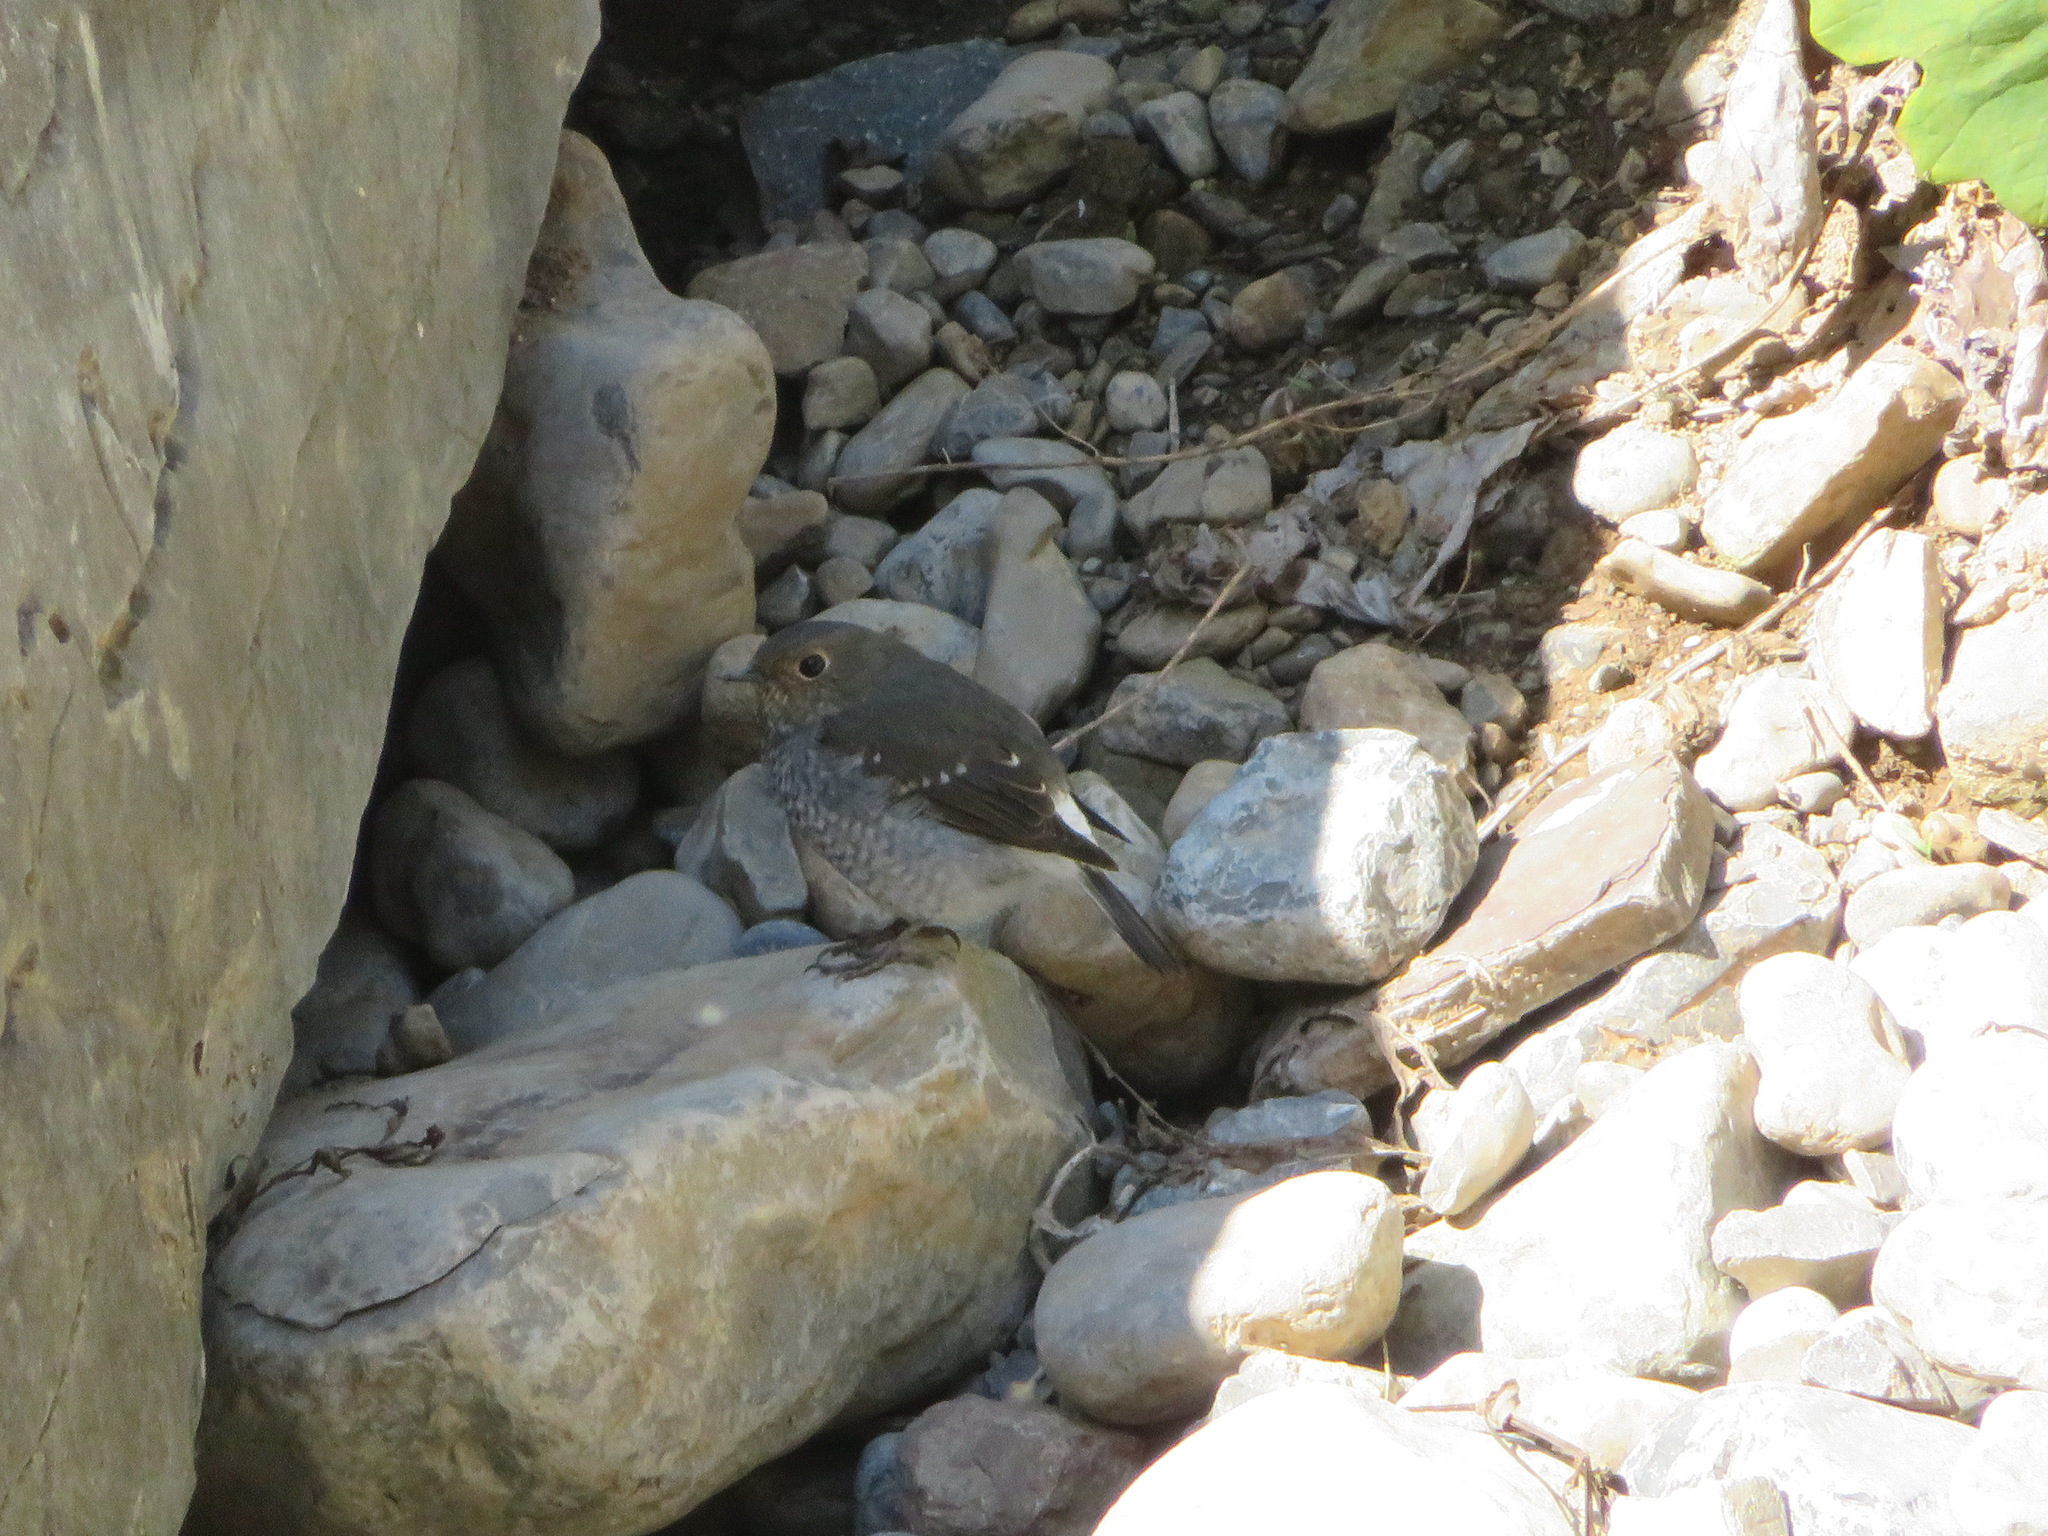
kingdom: Animalia
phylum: Chordata
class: Aves
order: Passeriformes
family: Muscicapidae
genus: Phoenicurus
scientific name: Phoenicurus fuliginosus
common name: Plumbeous water redstart
